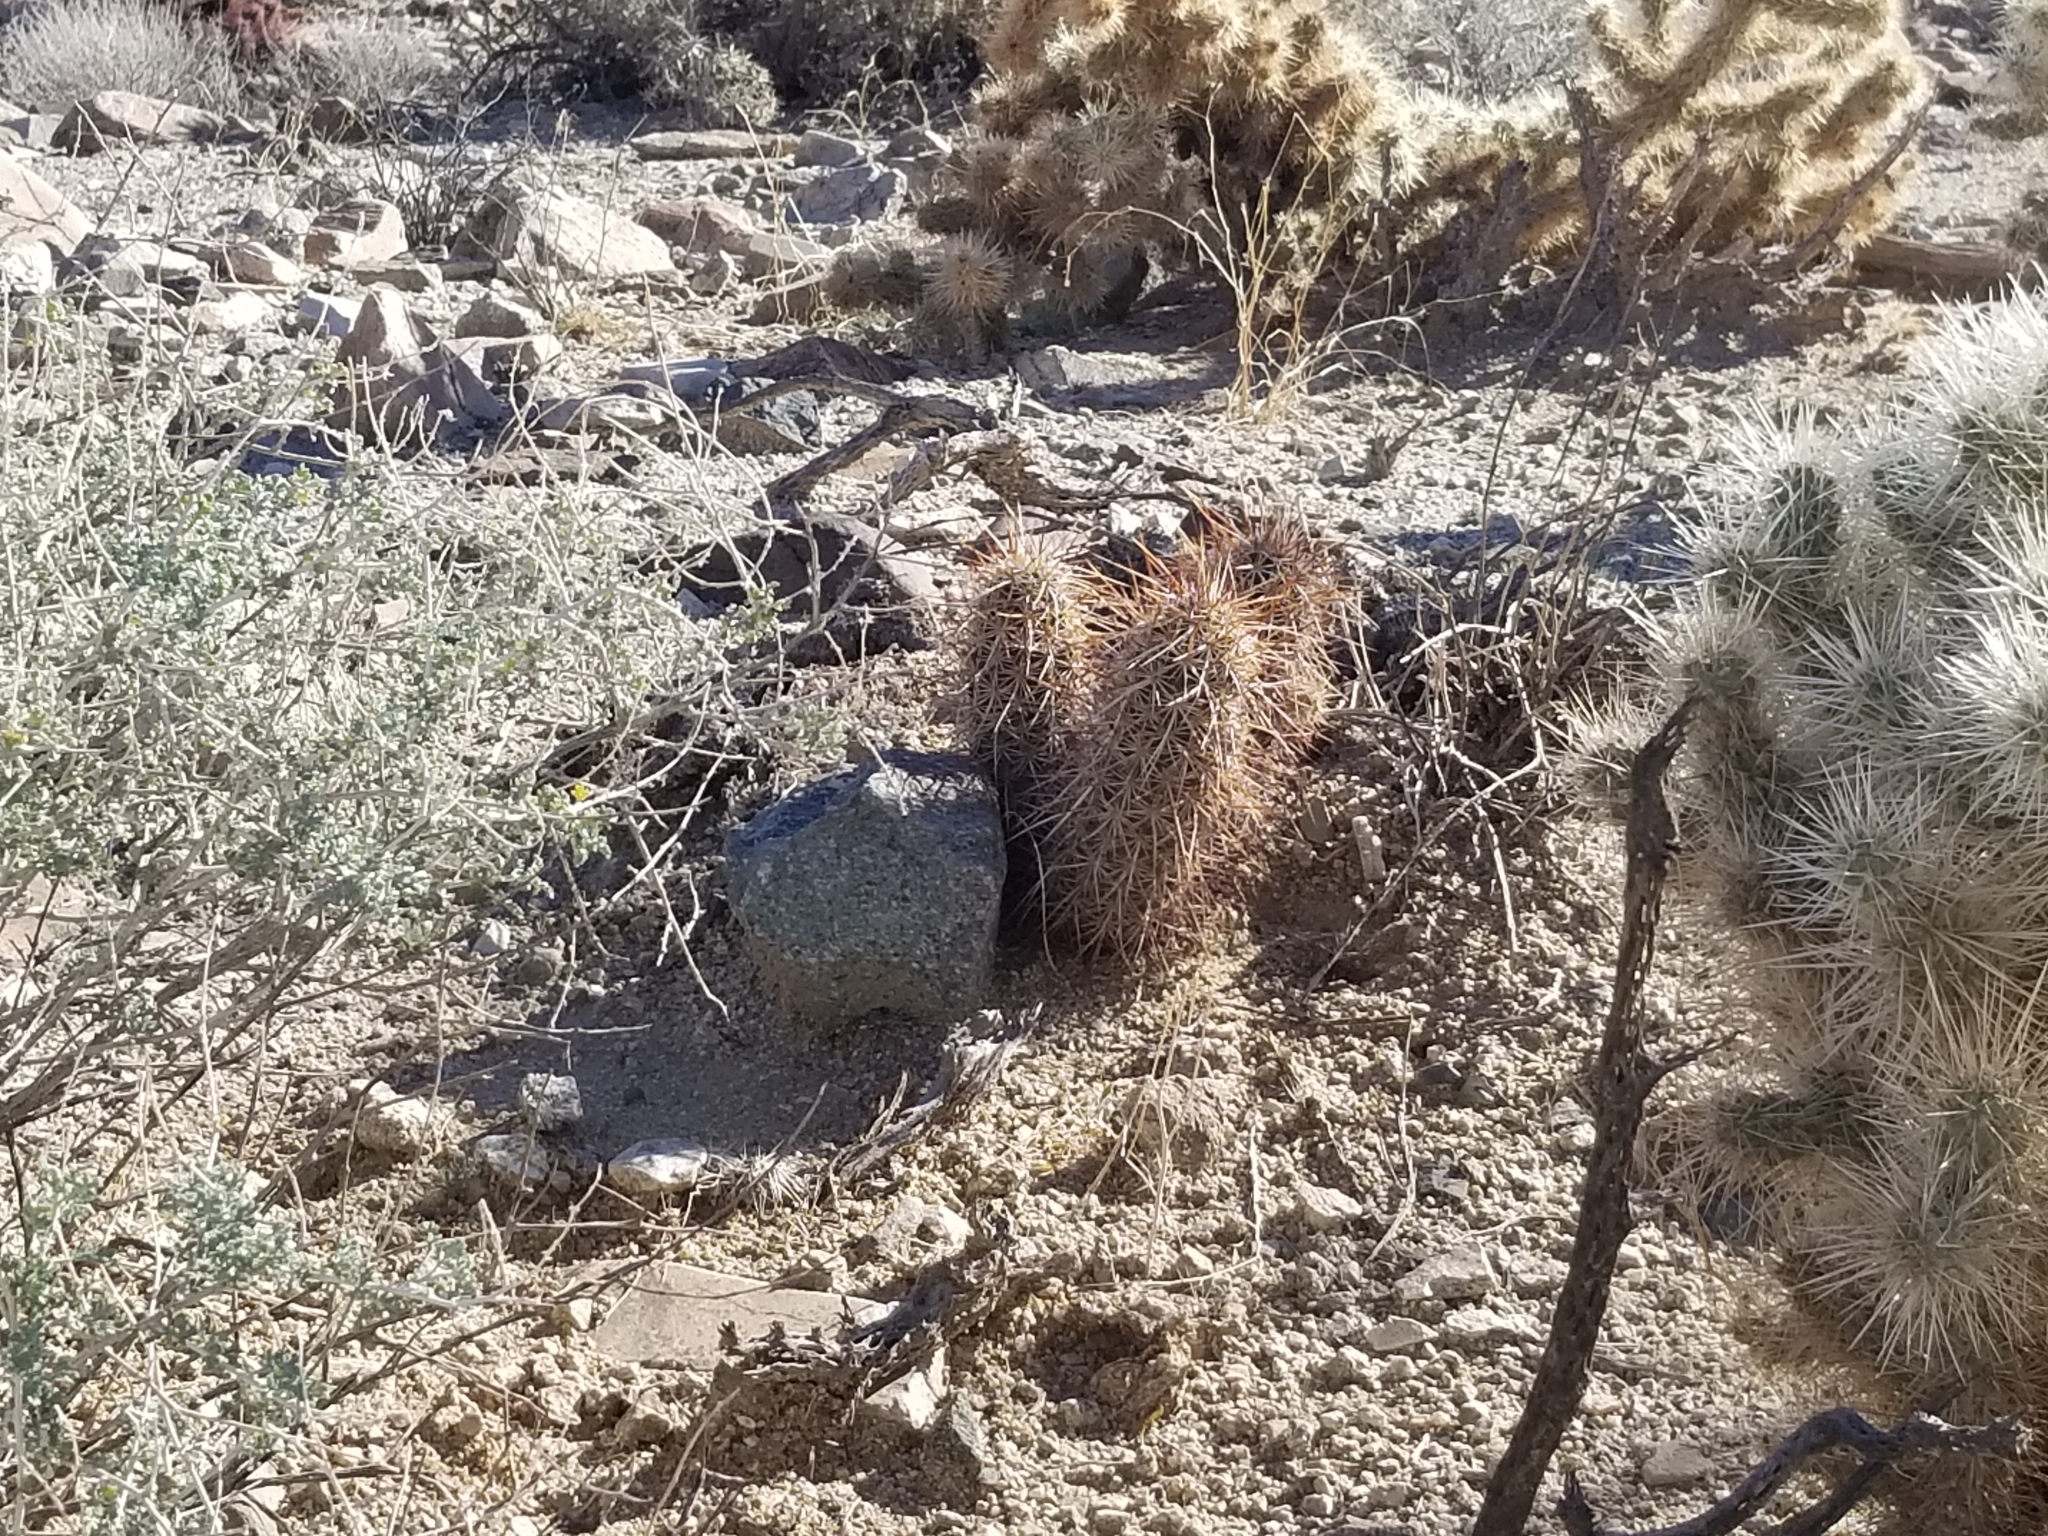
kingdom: Plantae
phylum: Tracheophyta
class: Magnoliopsida
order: Caryophyllales
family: Cactaceae
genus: Echinocereus
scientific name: Echinocereus engelmannii
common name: Engelmann's hedgehog cactus
